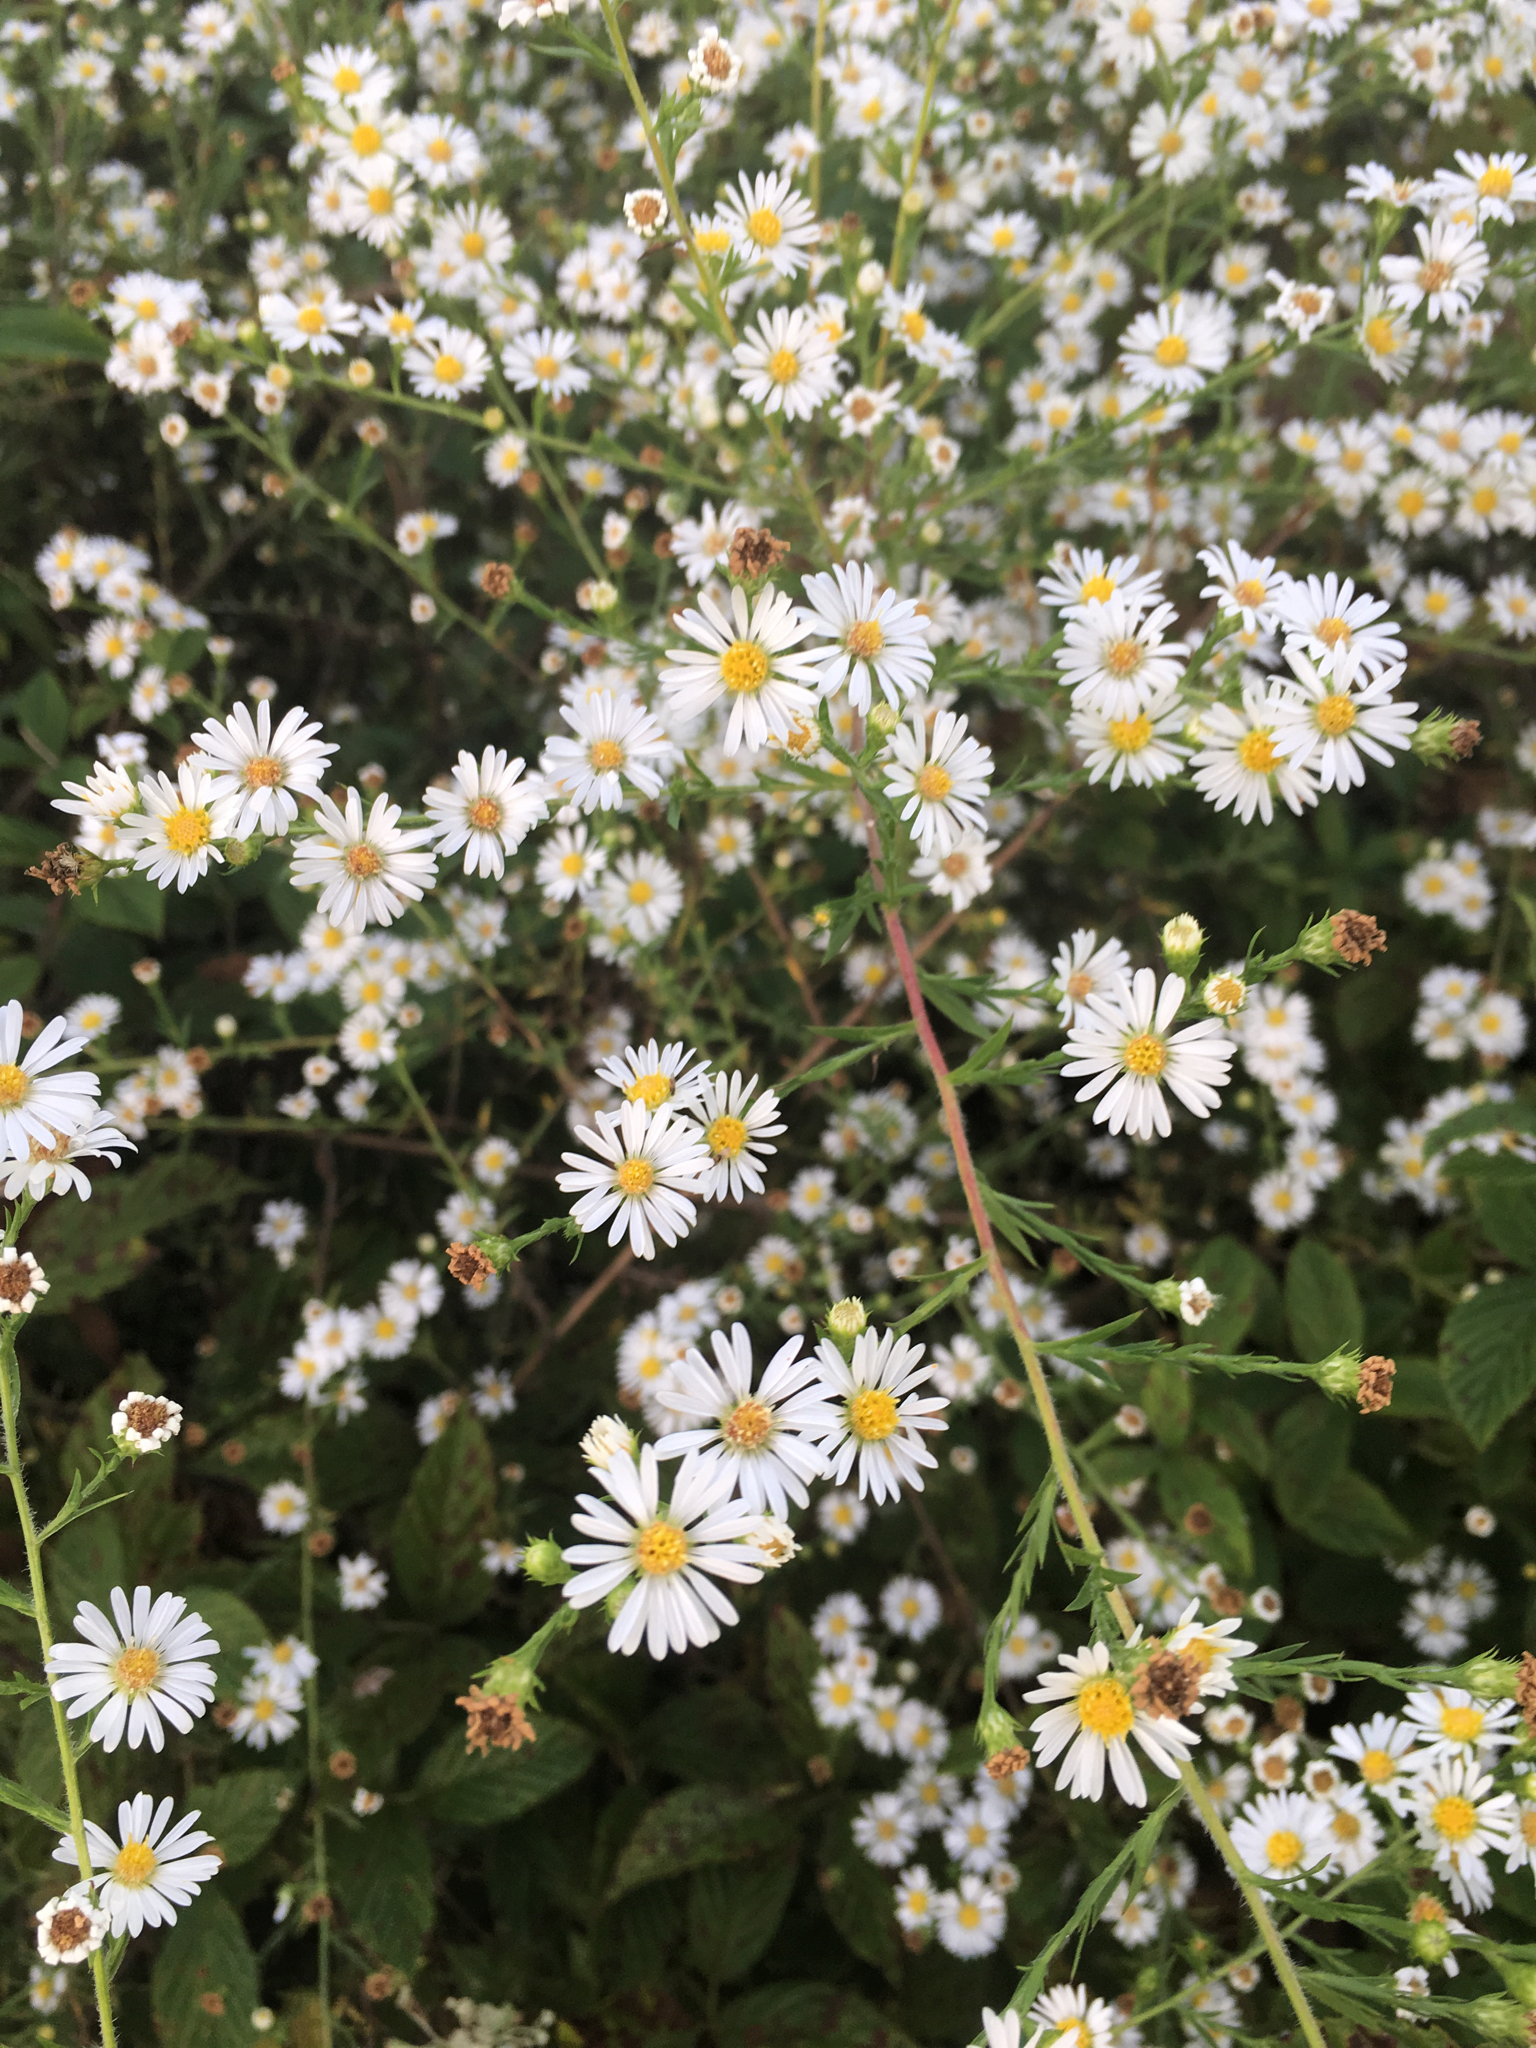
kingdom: Plantae
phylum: Tracheophyta
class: Magnoliopsida
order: Asterales
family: Asteraceae
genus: Symphyotrichum
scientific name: Symphyotrichum pilosum
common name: Awl aster
